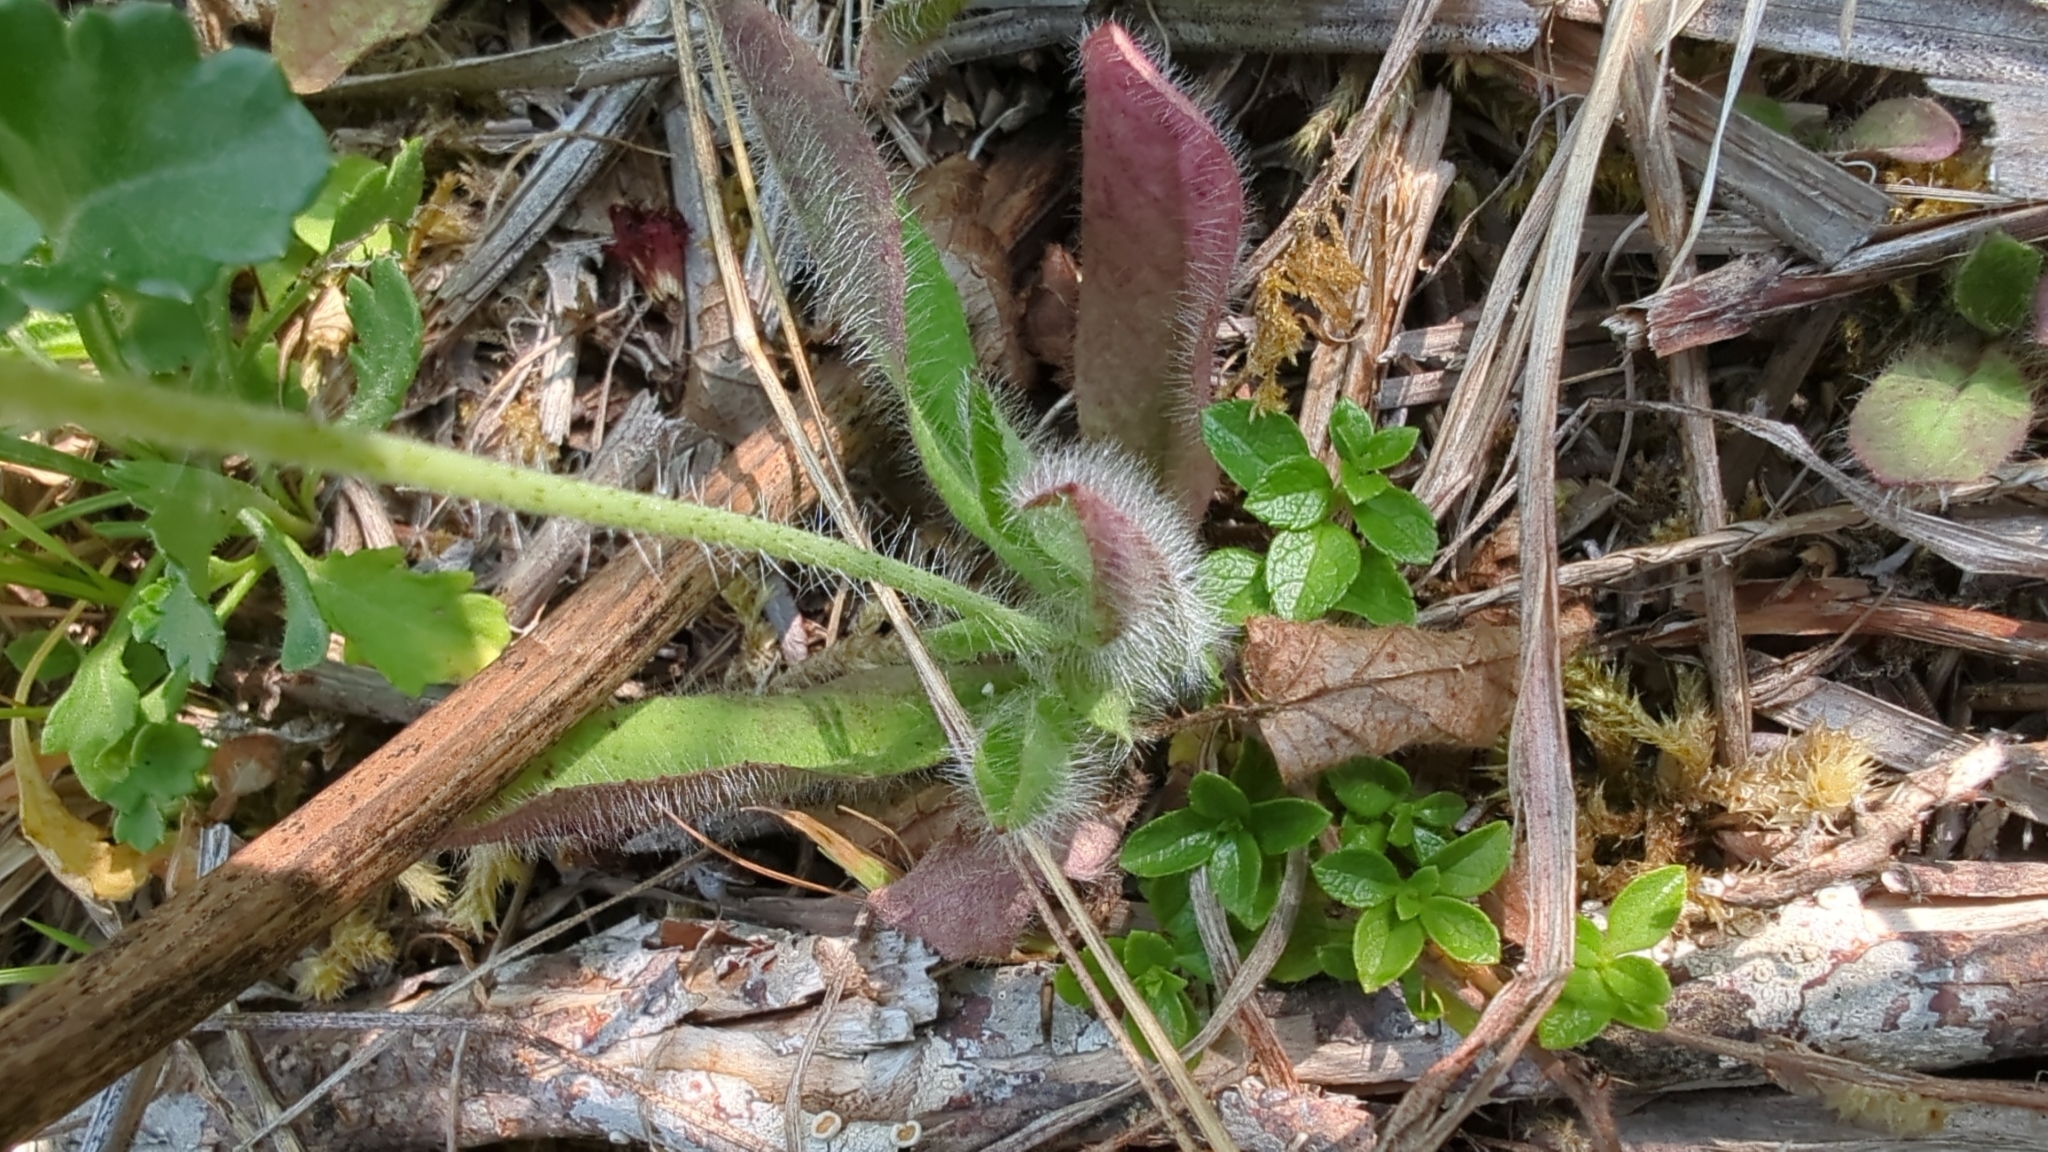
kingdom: Plantae
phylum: Tracheophyta
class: Magnoliopsida
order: Asterales
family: Asteraceae
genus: Pilosella
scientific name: Pilosella aurantiaca
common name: Fox-and-cubs
